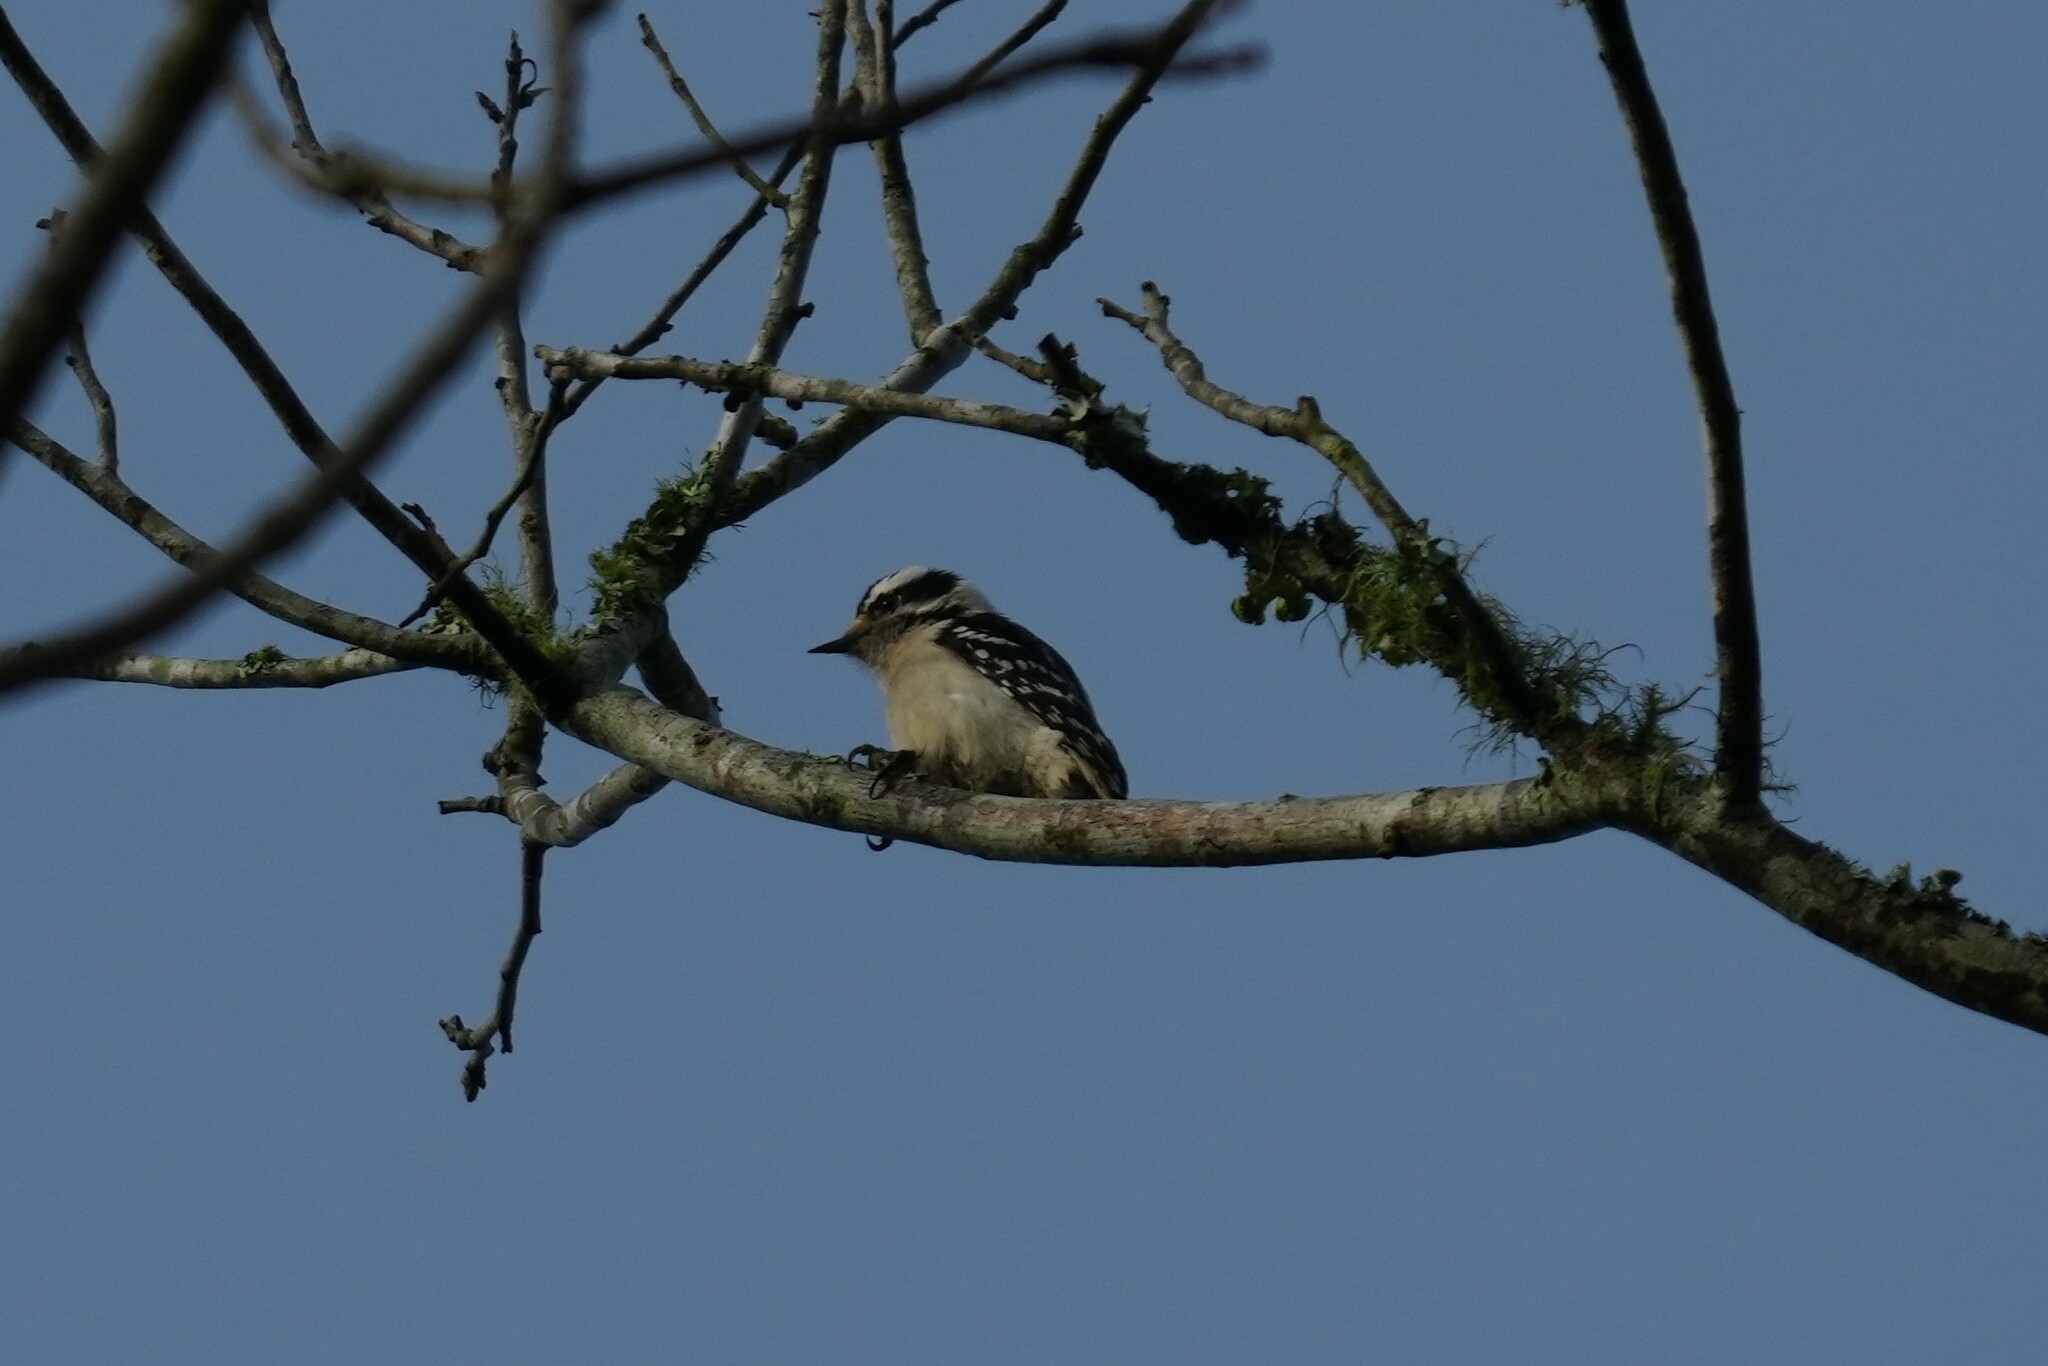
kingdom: Animalia
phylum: Chordata
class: Aves
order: Piciformes
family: Picidae
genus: Dryobates
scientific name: Dryobates pubescens
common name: Downy woodpecker
